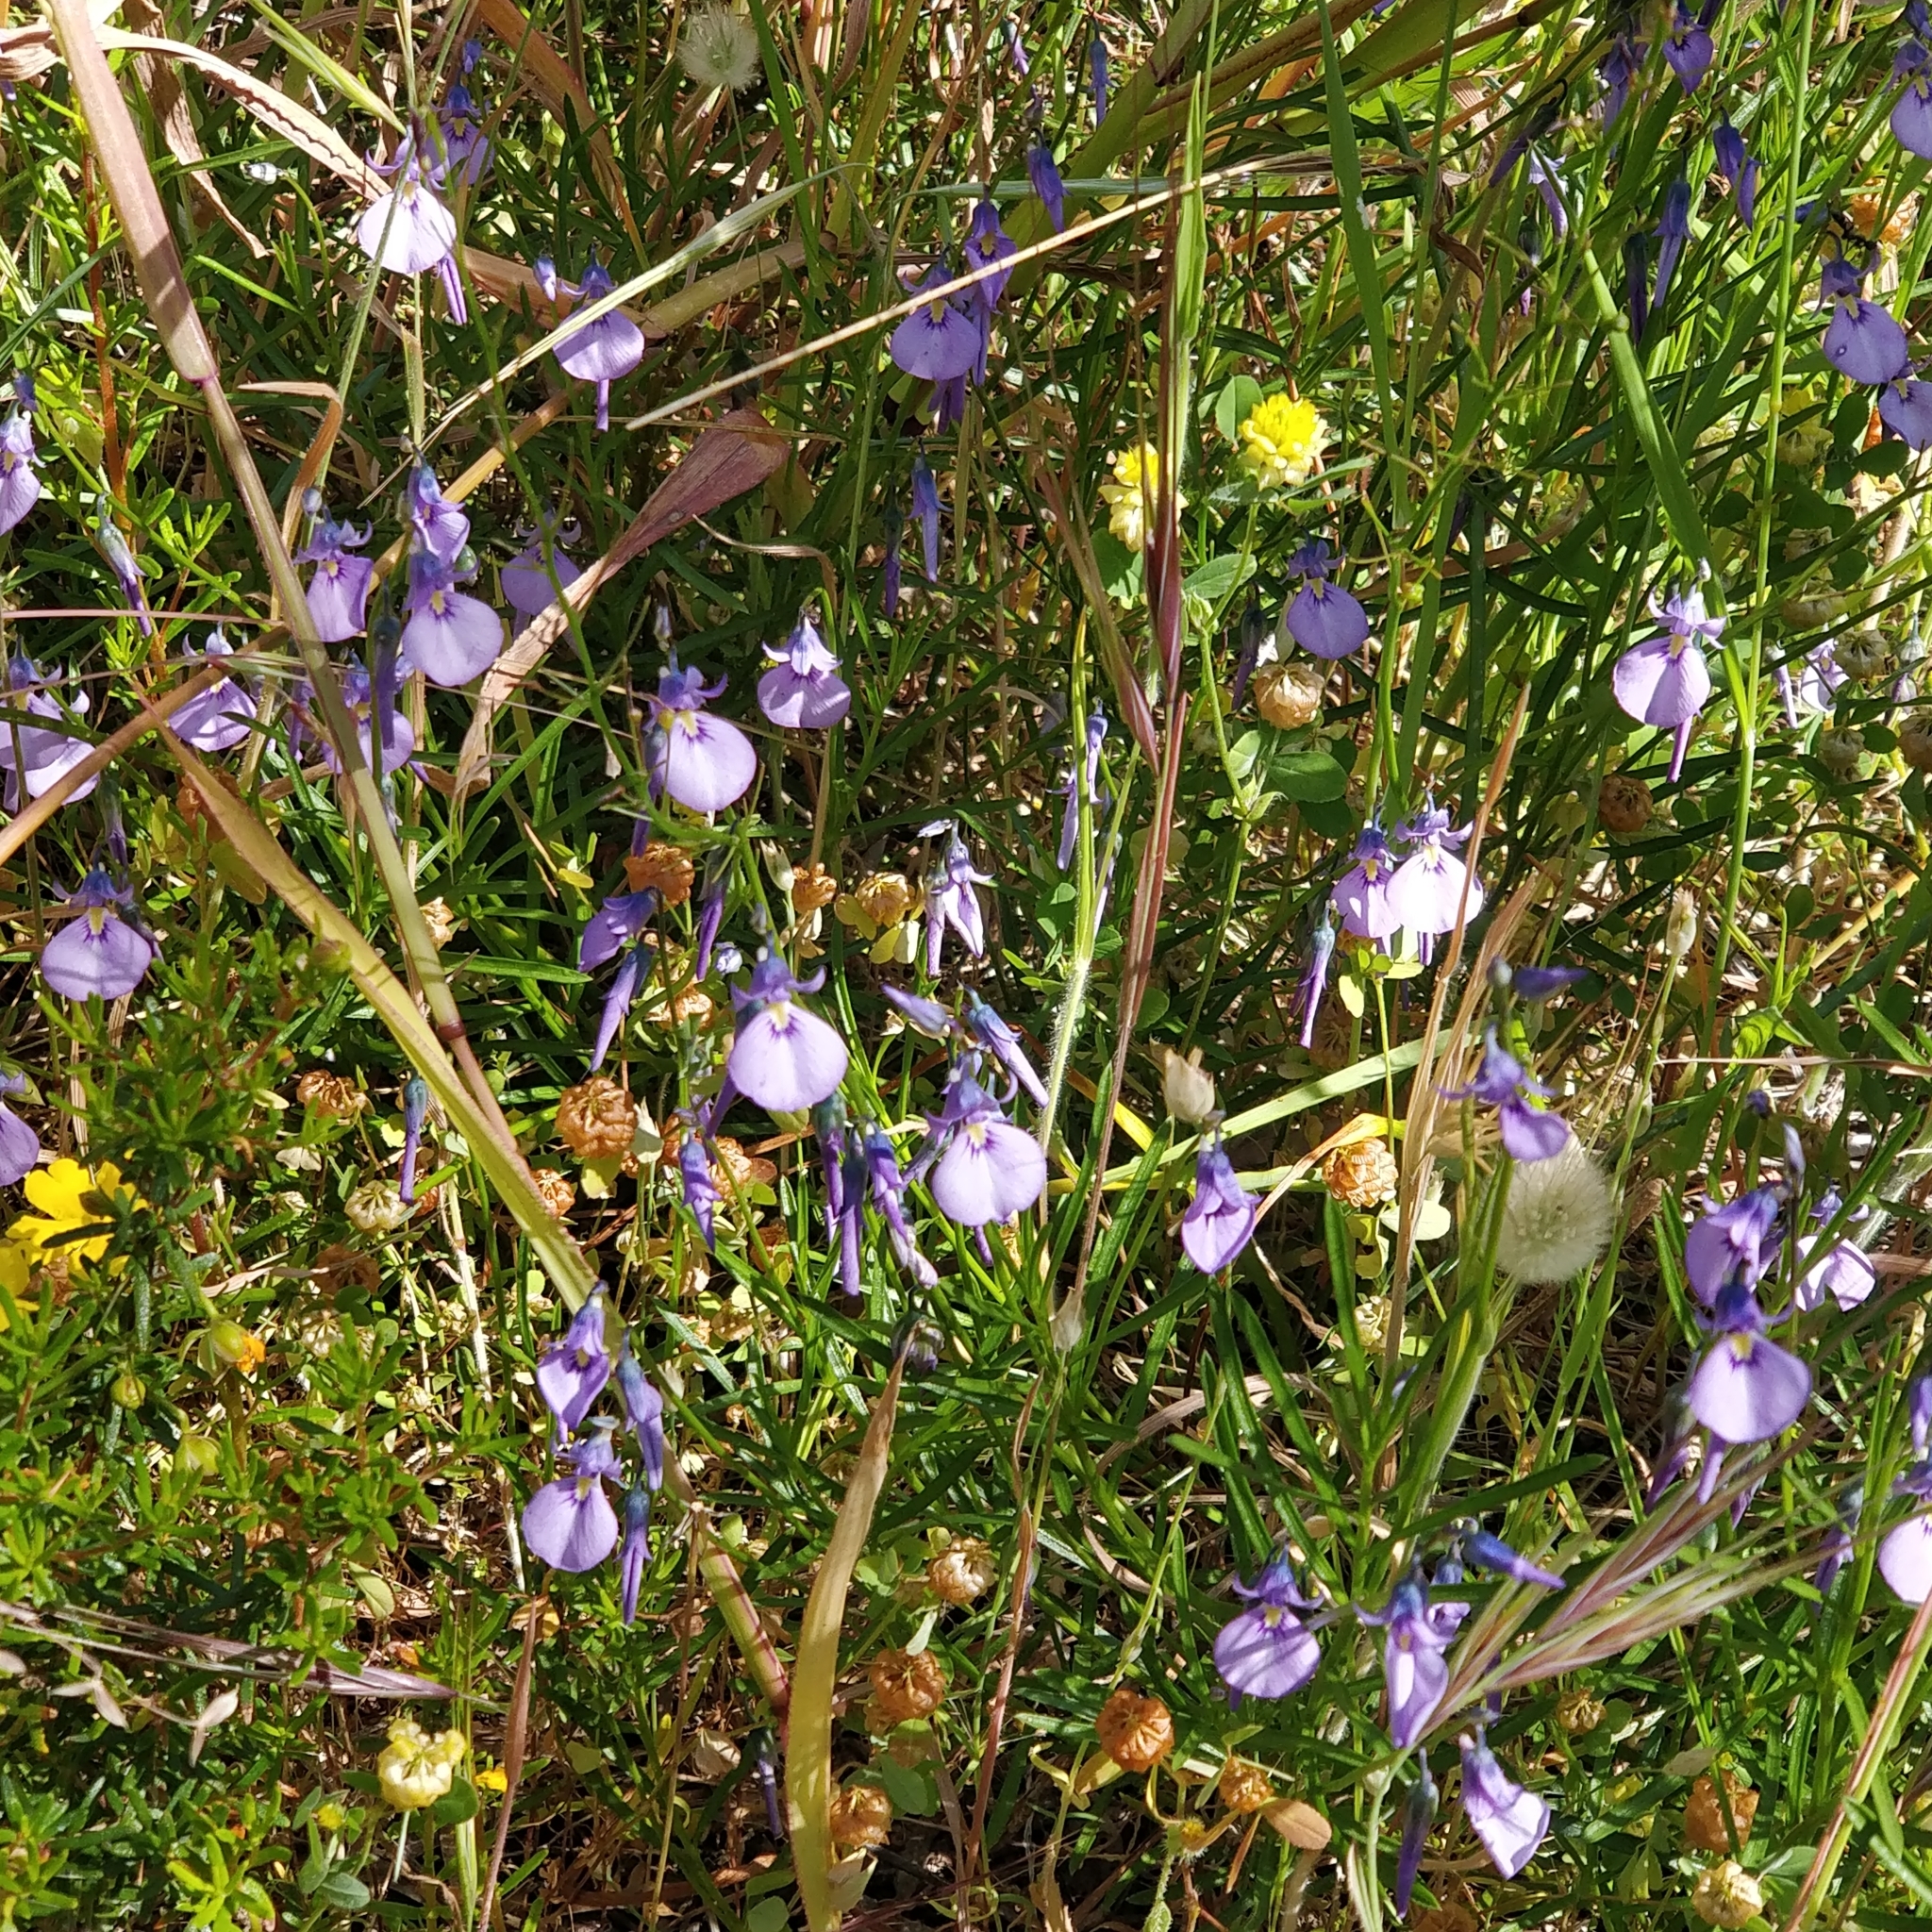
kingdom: Plantae
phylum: Tracheophyta
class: Magnoliopsida
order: Malpighiales
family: Violaceae
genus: Pigea
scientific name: Pigea calycina
